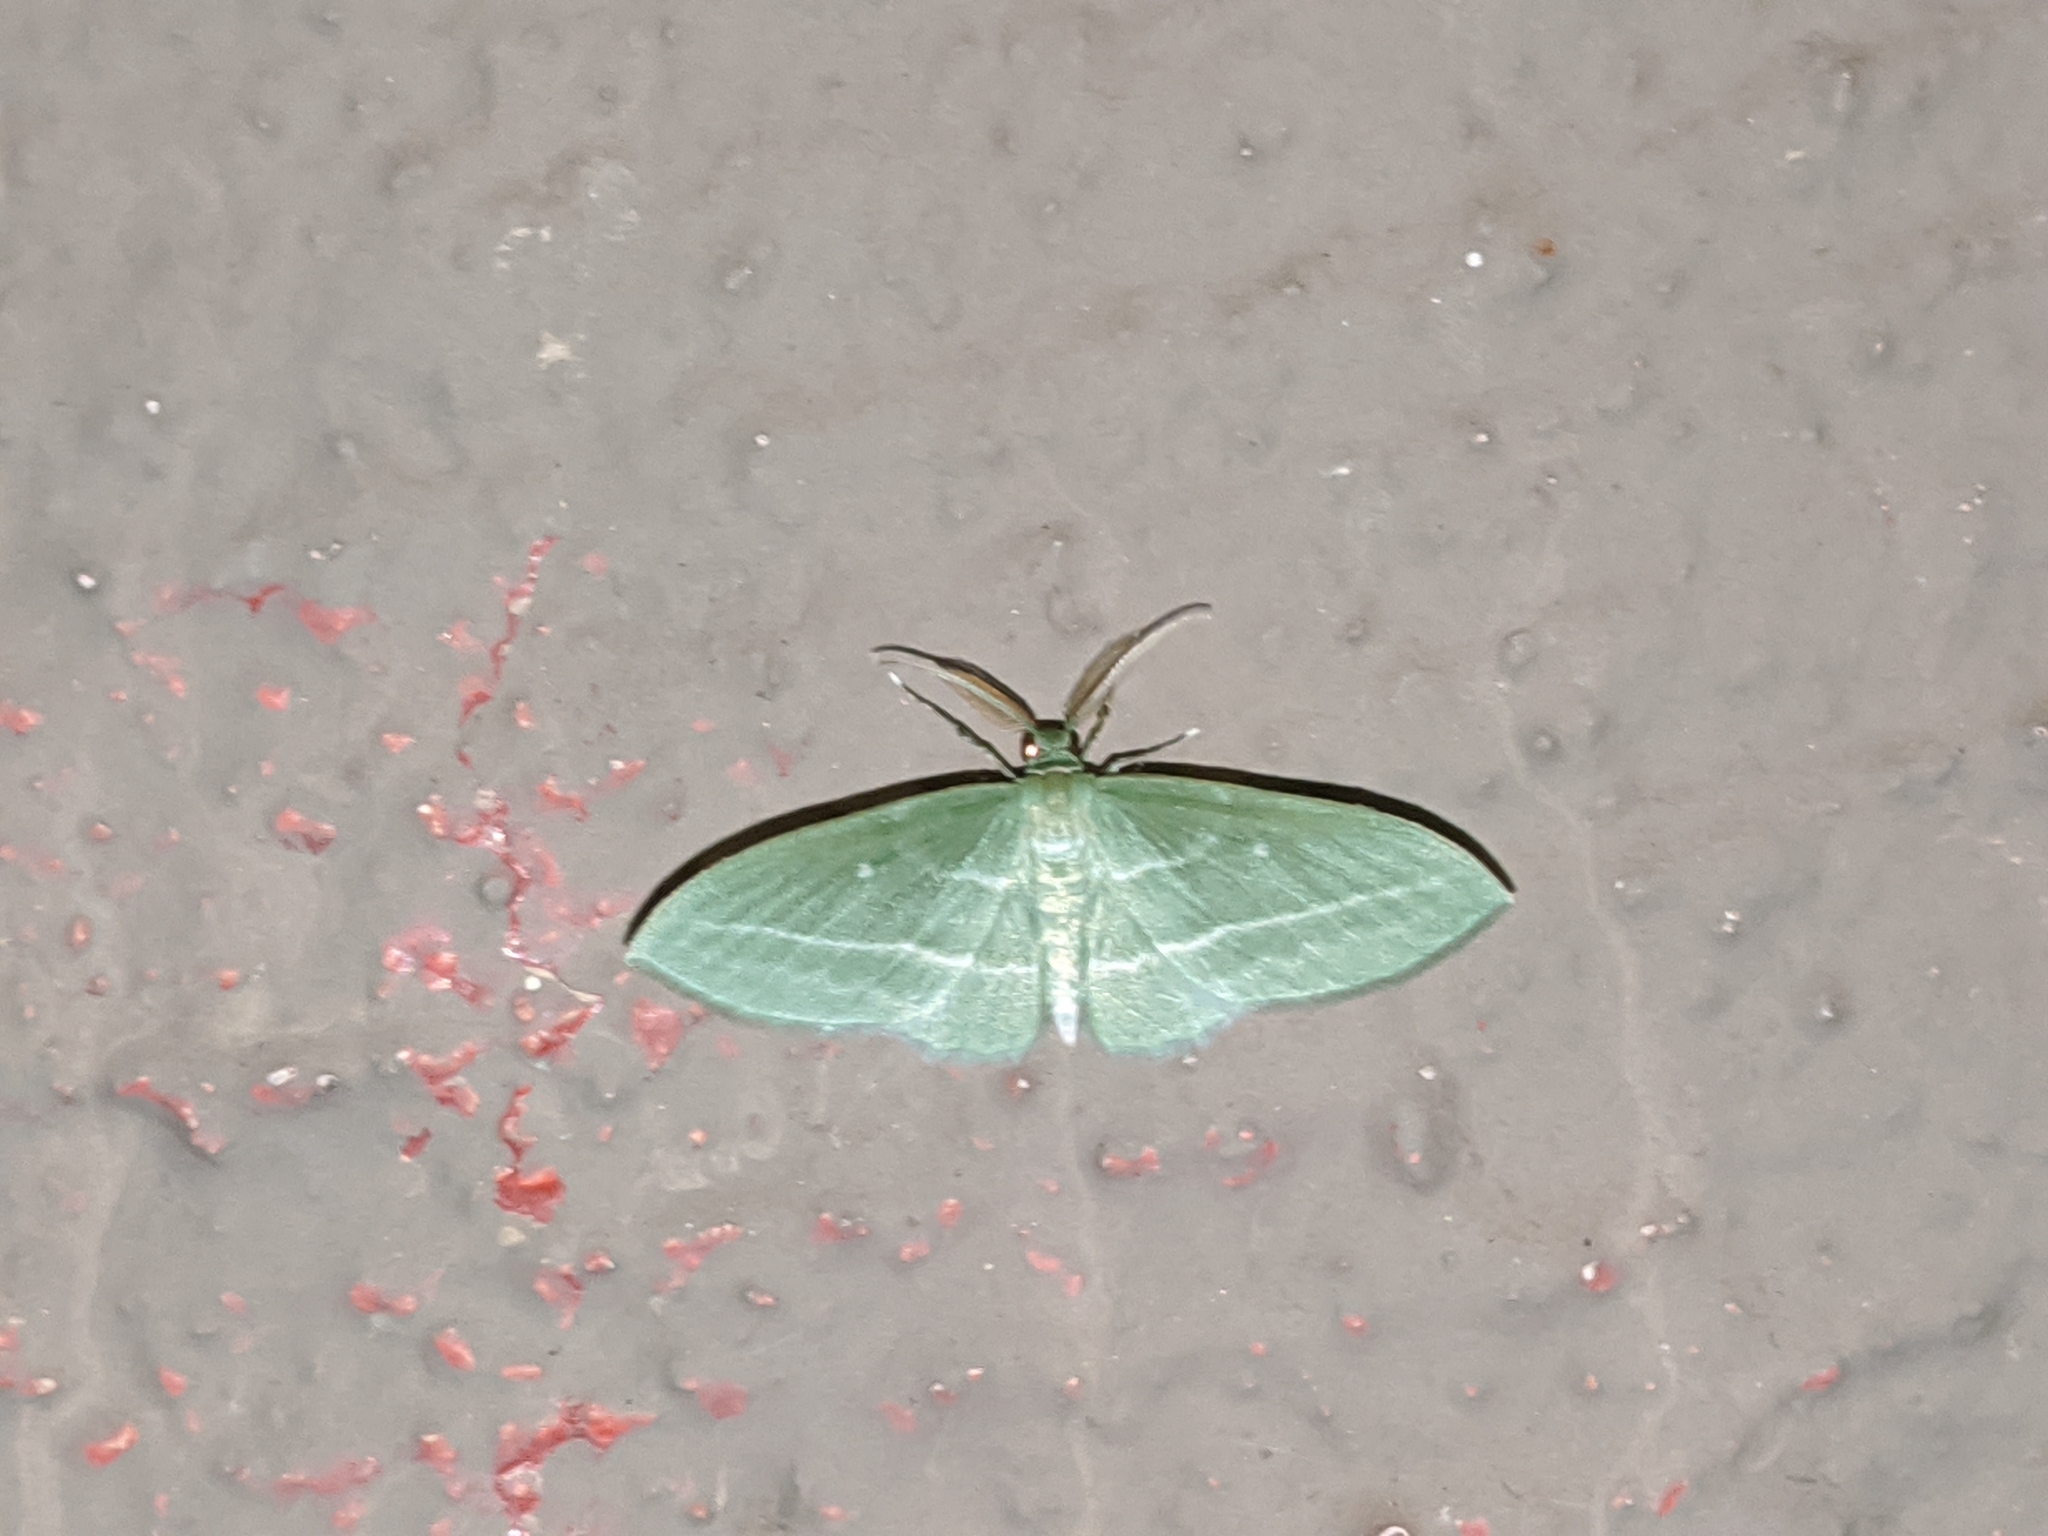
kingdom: Animalia
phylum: Arthropoda
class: Insecta
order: Lepidoptera
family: Geometridae
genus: Dyspteris
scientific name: Dyspteris abortivaria
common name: Bad-wing
